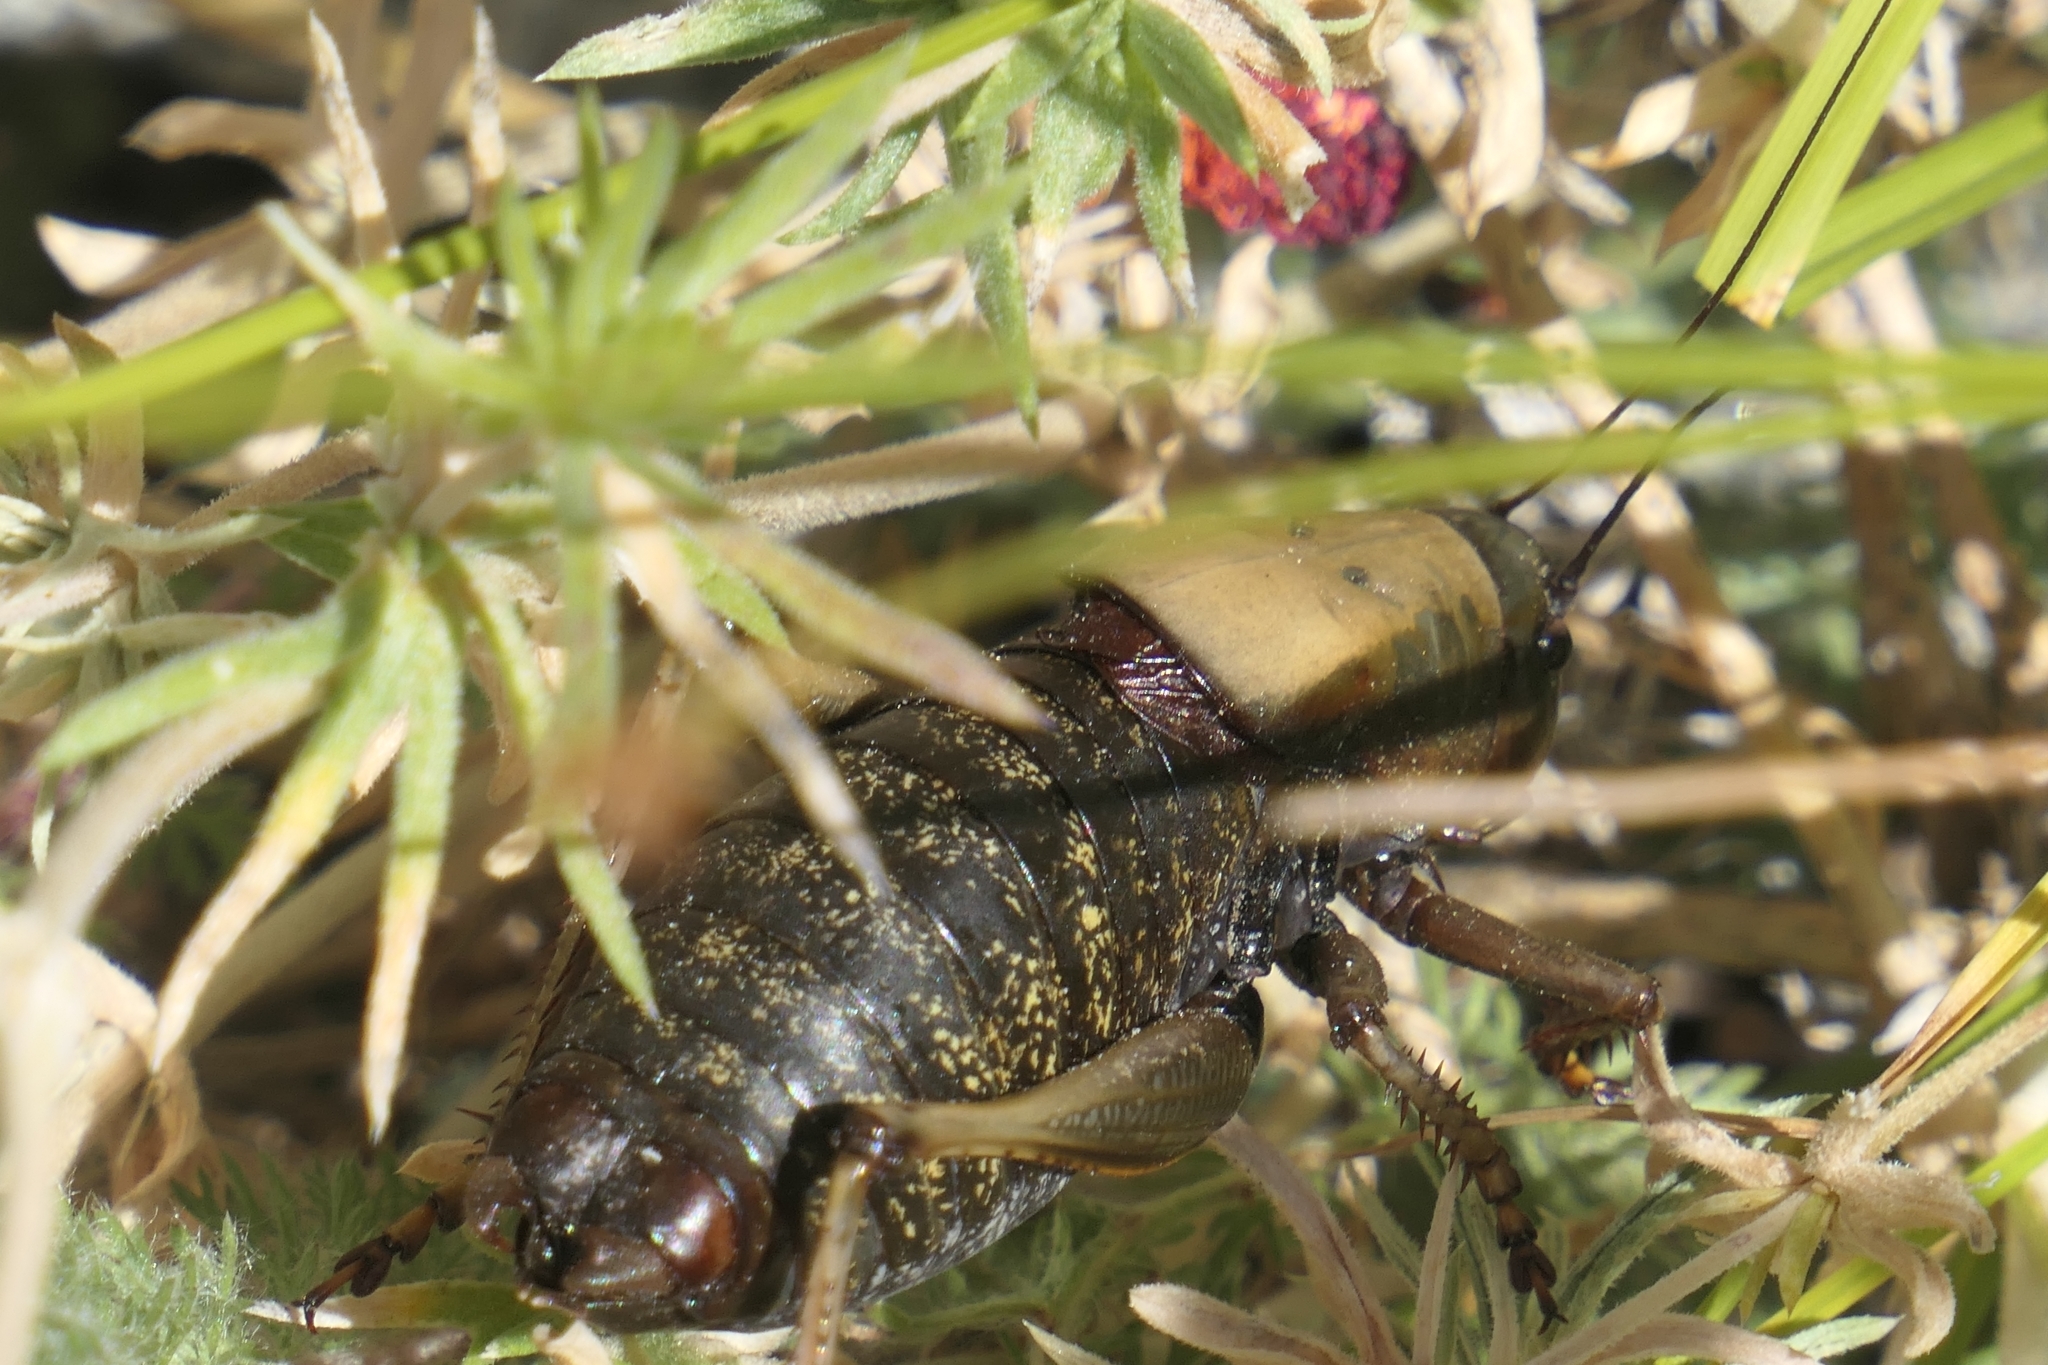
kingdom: Animalia
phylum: Arthropoda
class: Insecta
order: Orthoptera
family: Tettigoniidae
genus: Anabrus
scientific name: Anabrus simplex
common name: Mormon cricket
